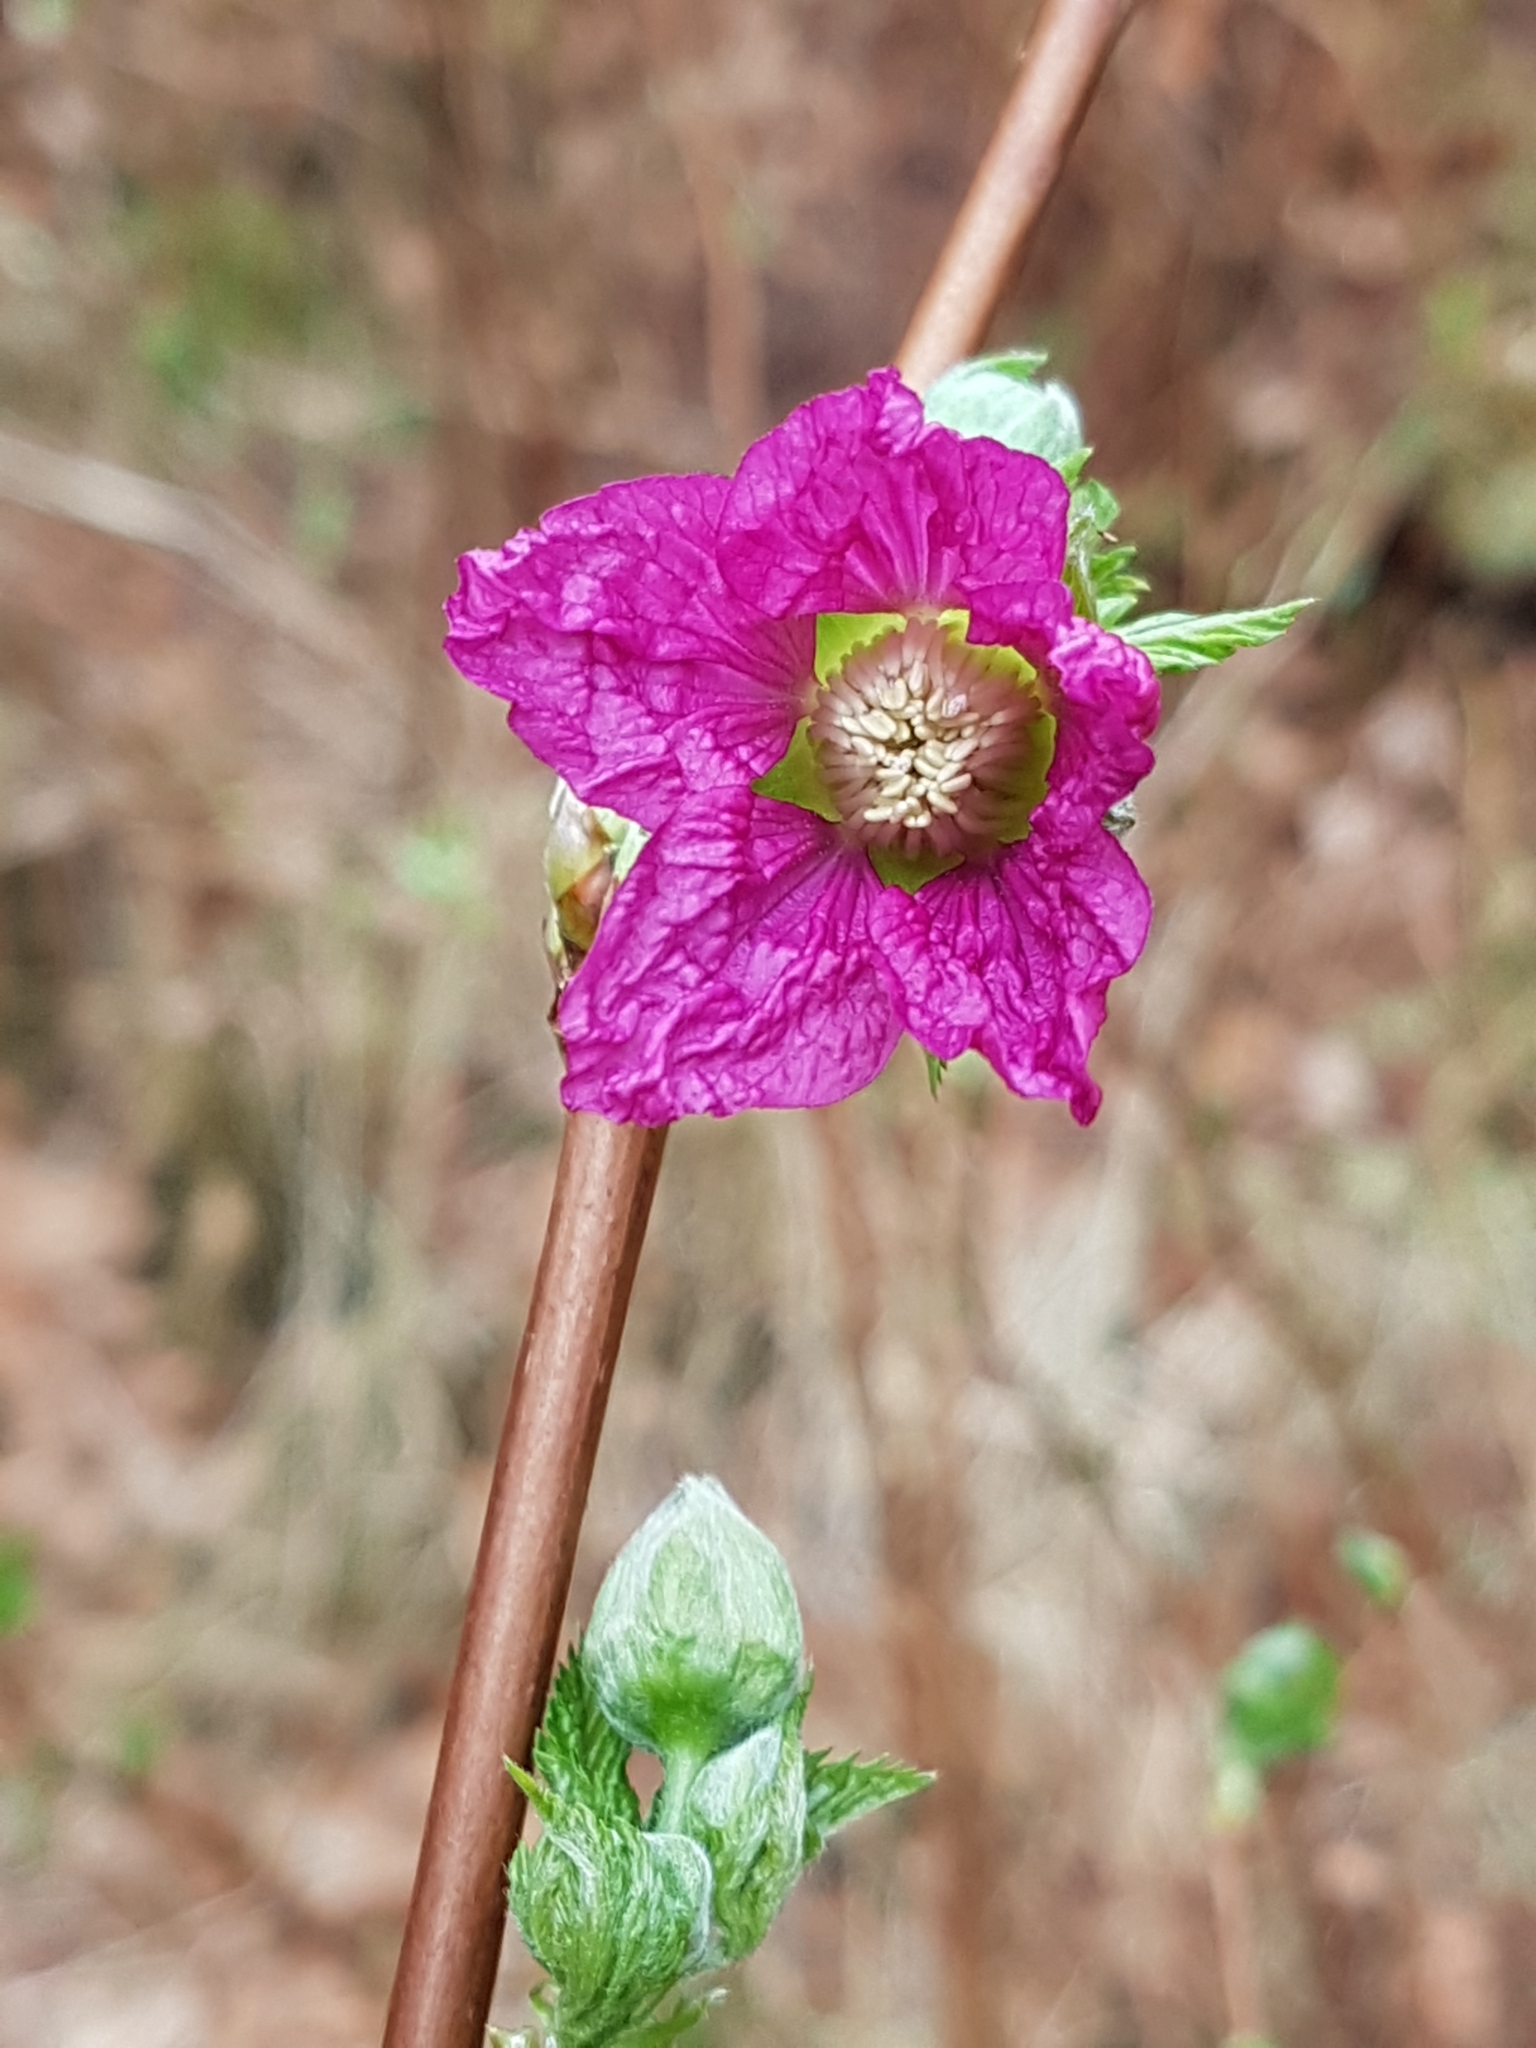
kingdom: Plantae
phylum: Tracheophyta
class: Magnoliopsida
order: Rosales
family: Rosaceae
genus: Rubus
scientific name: Rubus spectabilis
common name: Salmonberry
